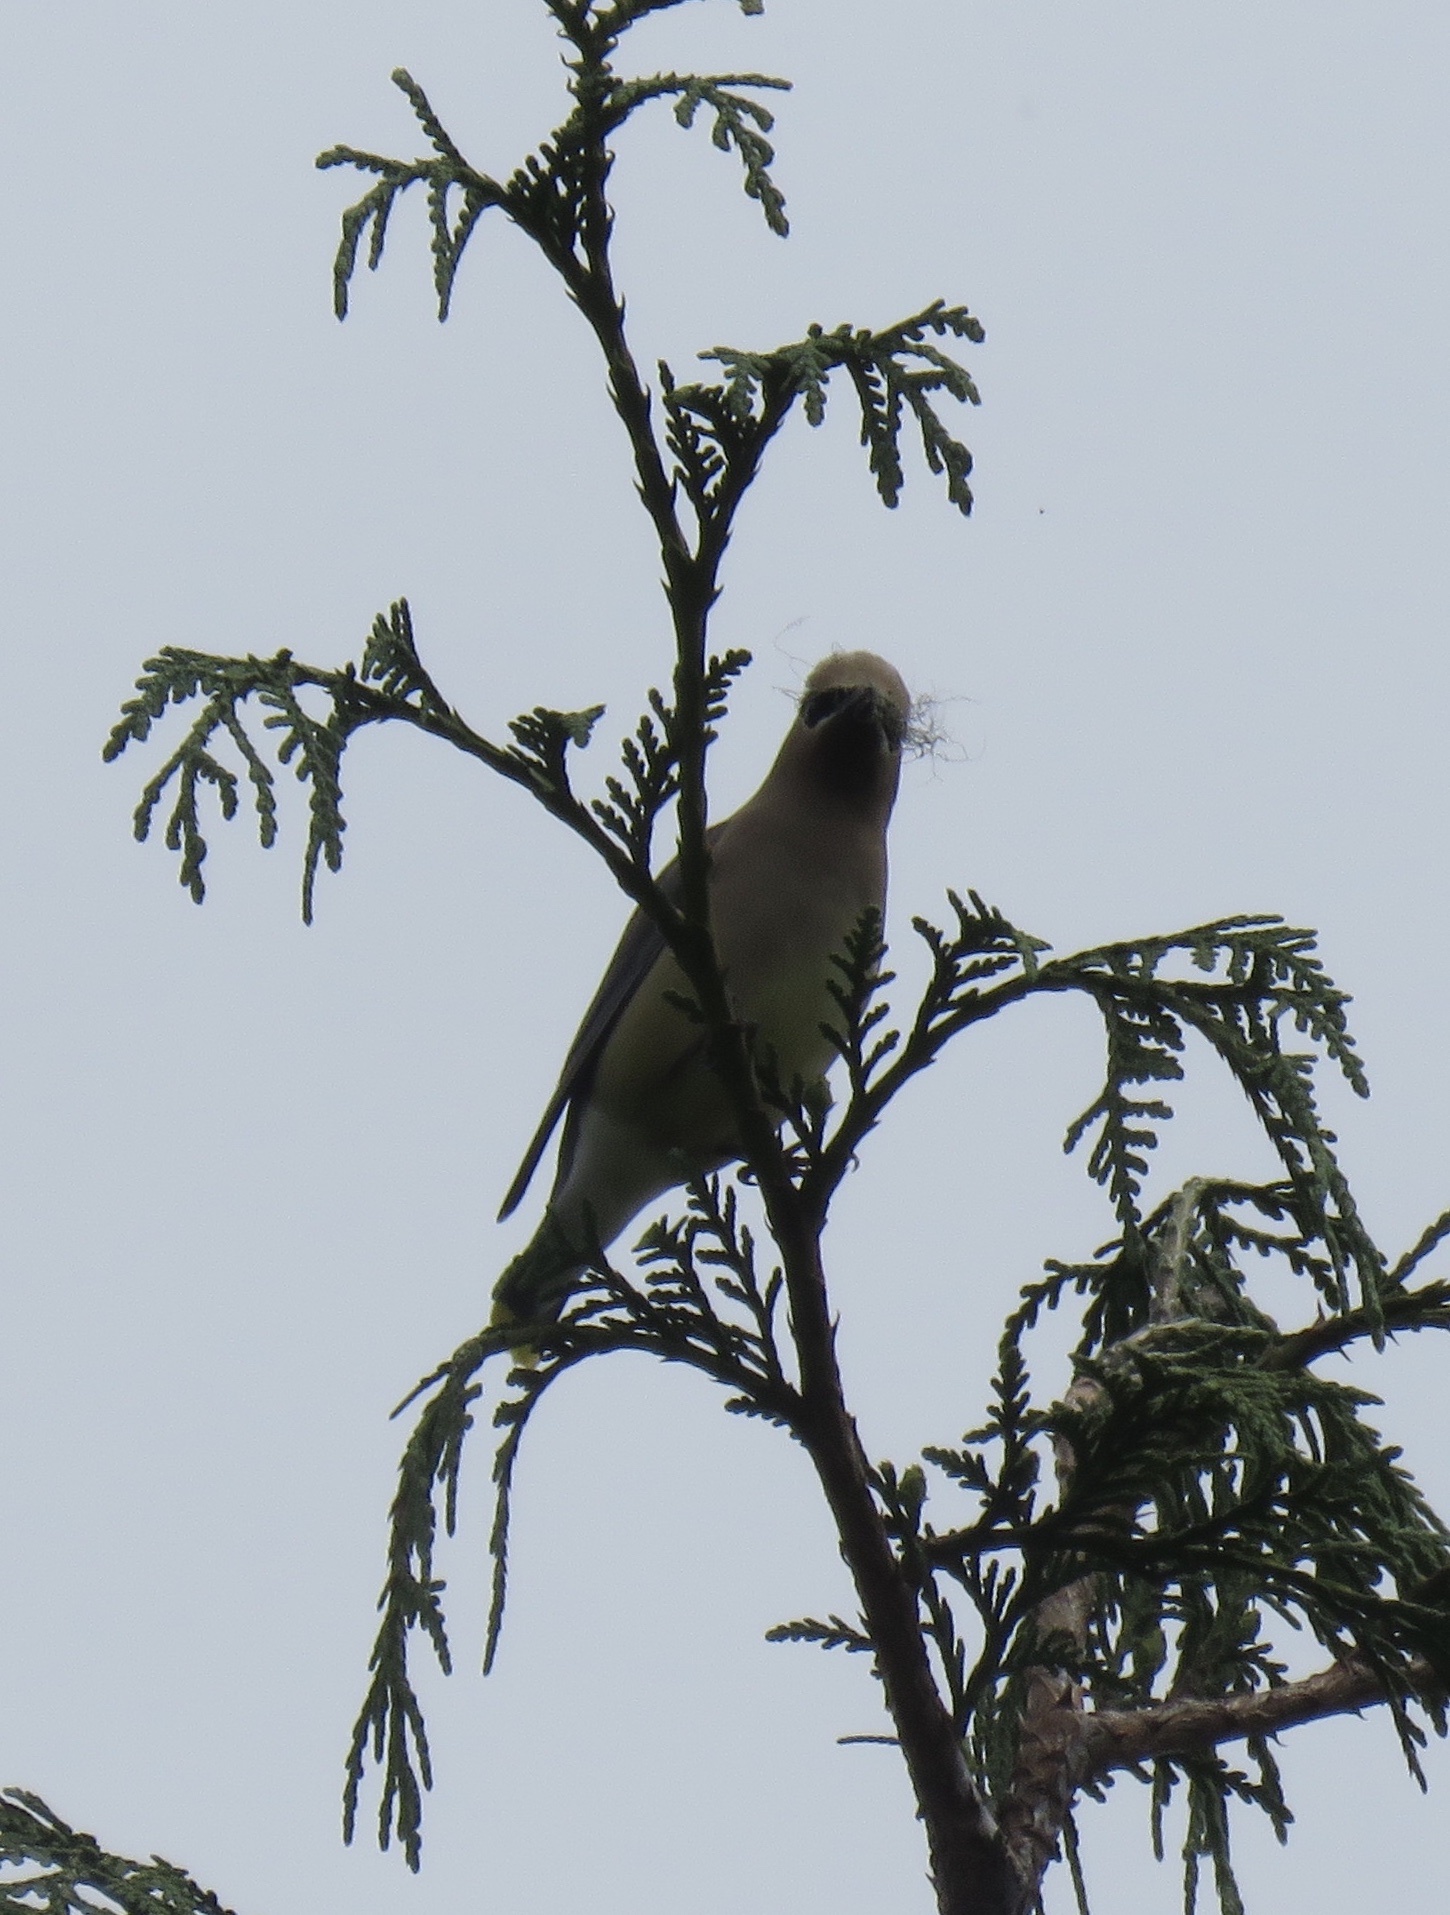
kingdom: Animalia
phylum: Chordata
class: Aves
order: Passeriformes
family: Bombycillidae
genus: Bombycilla
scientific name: Bombycilla cedrorum
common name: Cedar waxwing
